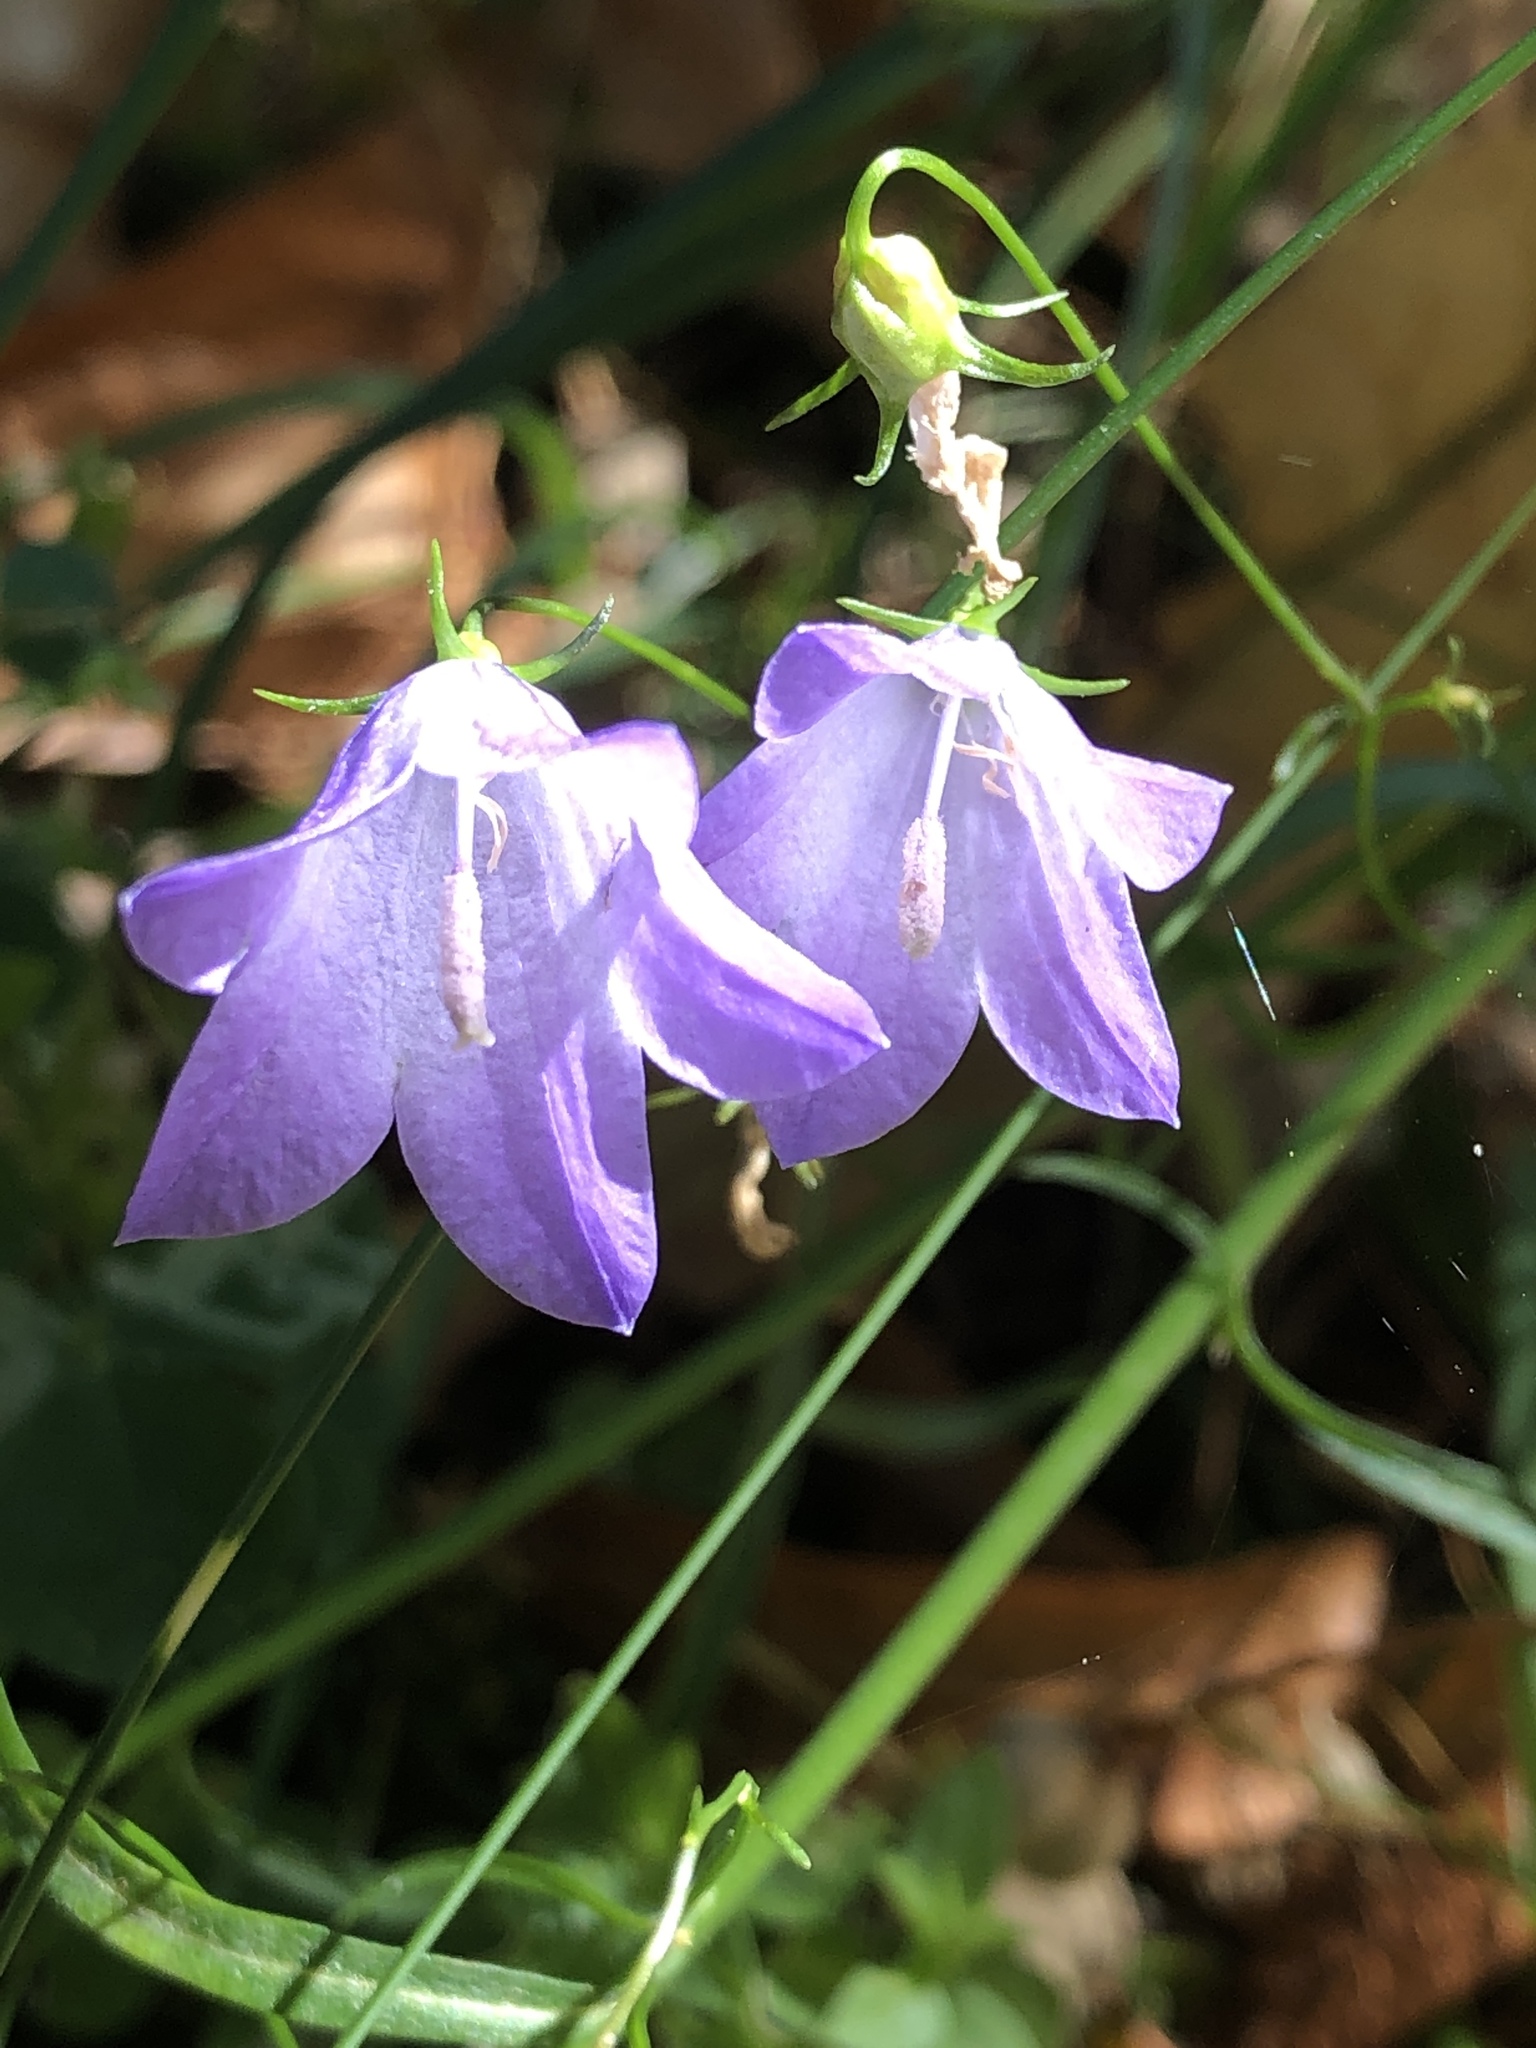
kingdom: Plantae
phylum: Tracheophyta
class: Magnoliopsida
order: Asterales
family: Campanulaceae
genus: Campanula
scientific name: Campanula rotundifolia
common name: Harebell
